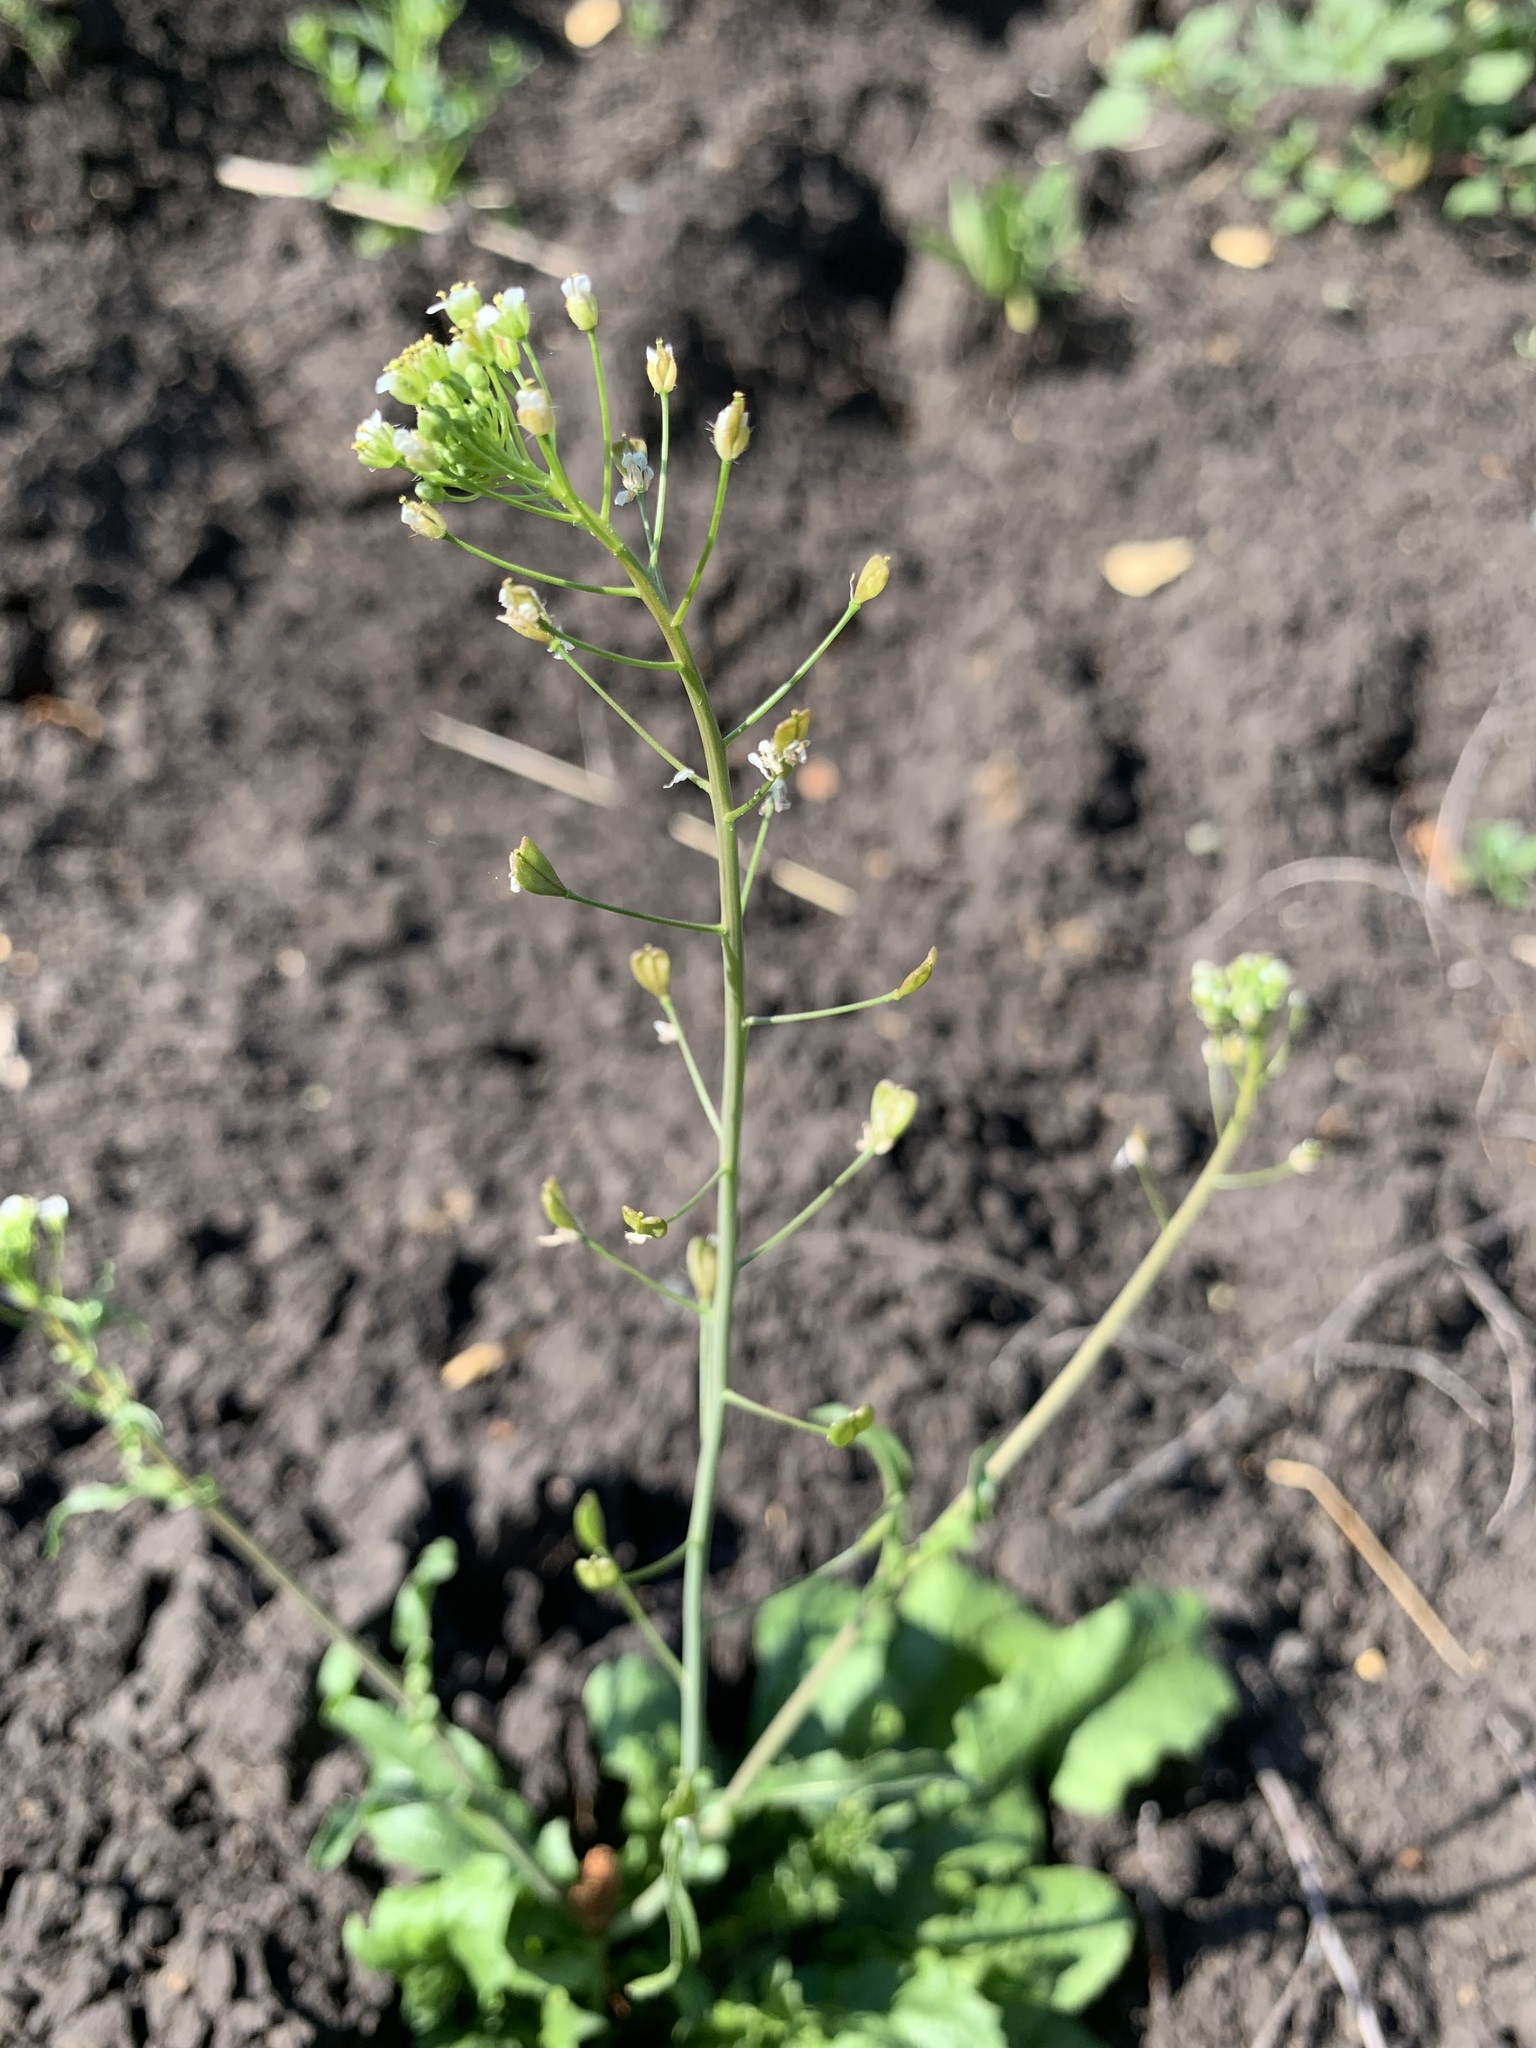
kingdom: Plantae
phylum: Tracheophyta
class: Magnoliopsida
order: Brassicales
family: Brassicaceae
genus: Capsella
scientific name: Capsella bursa-pastoris
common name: Shepherd's purse
